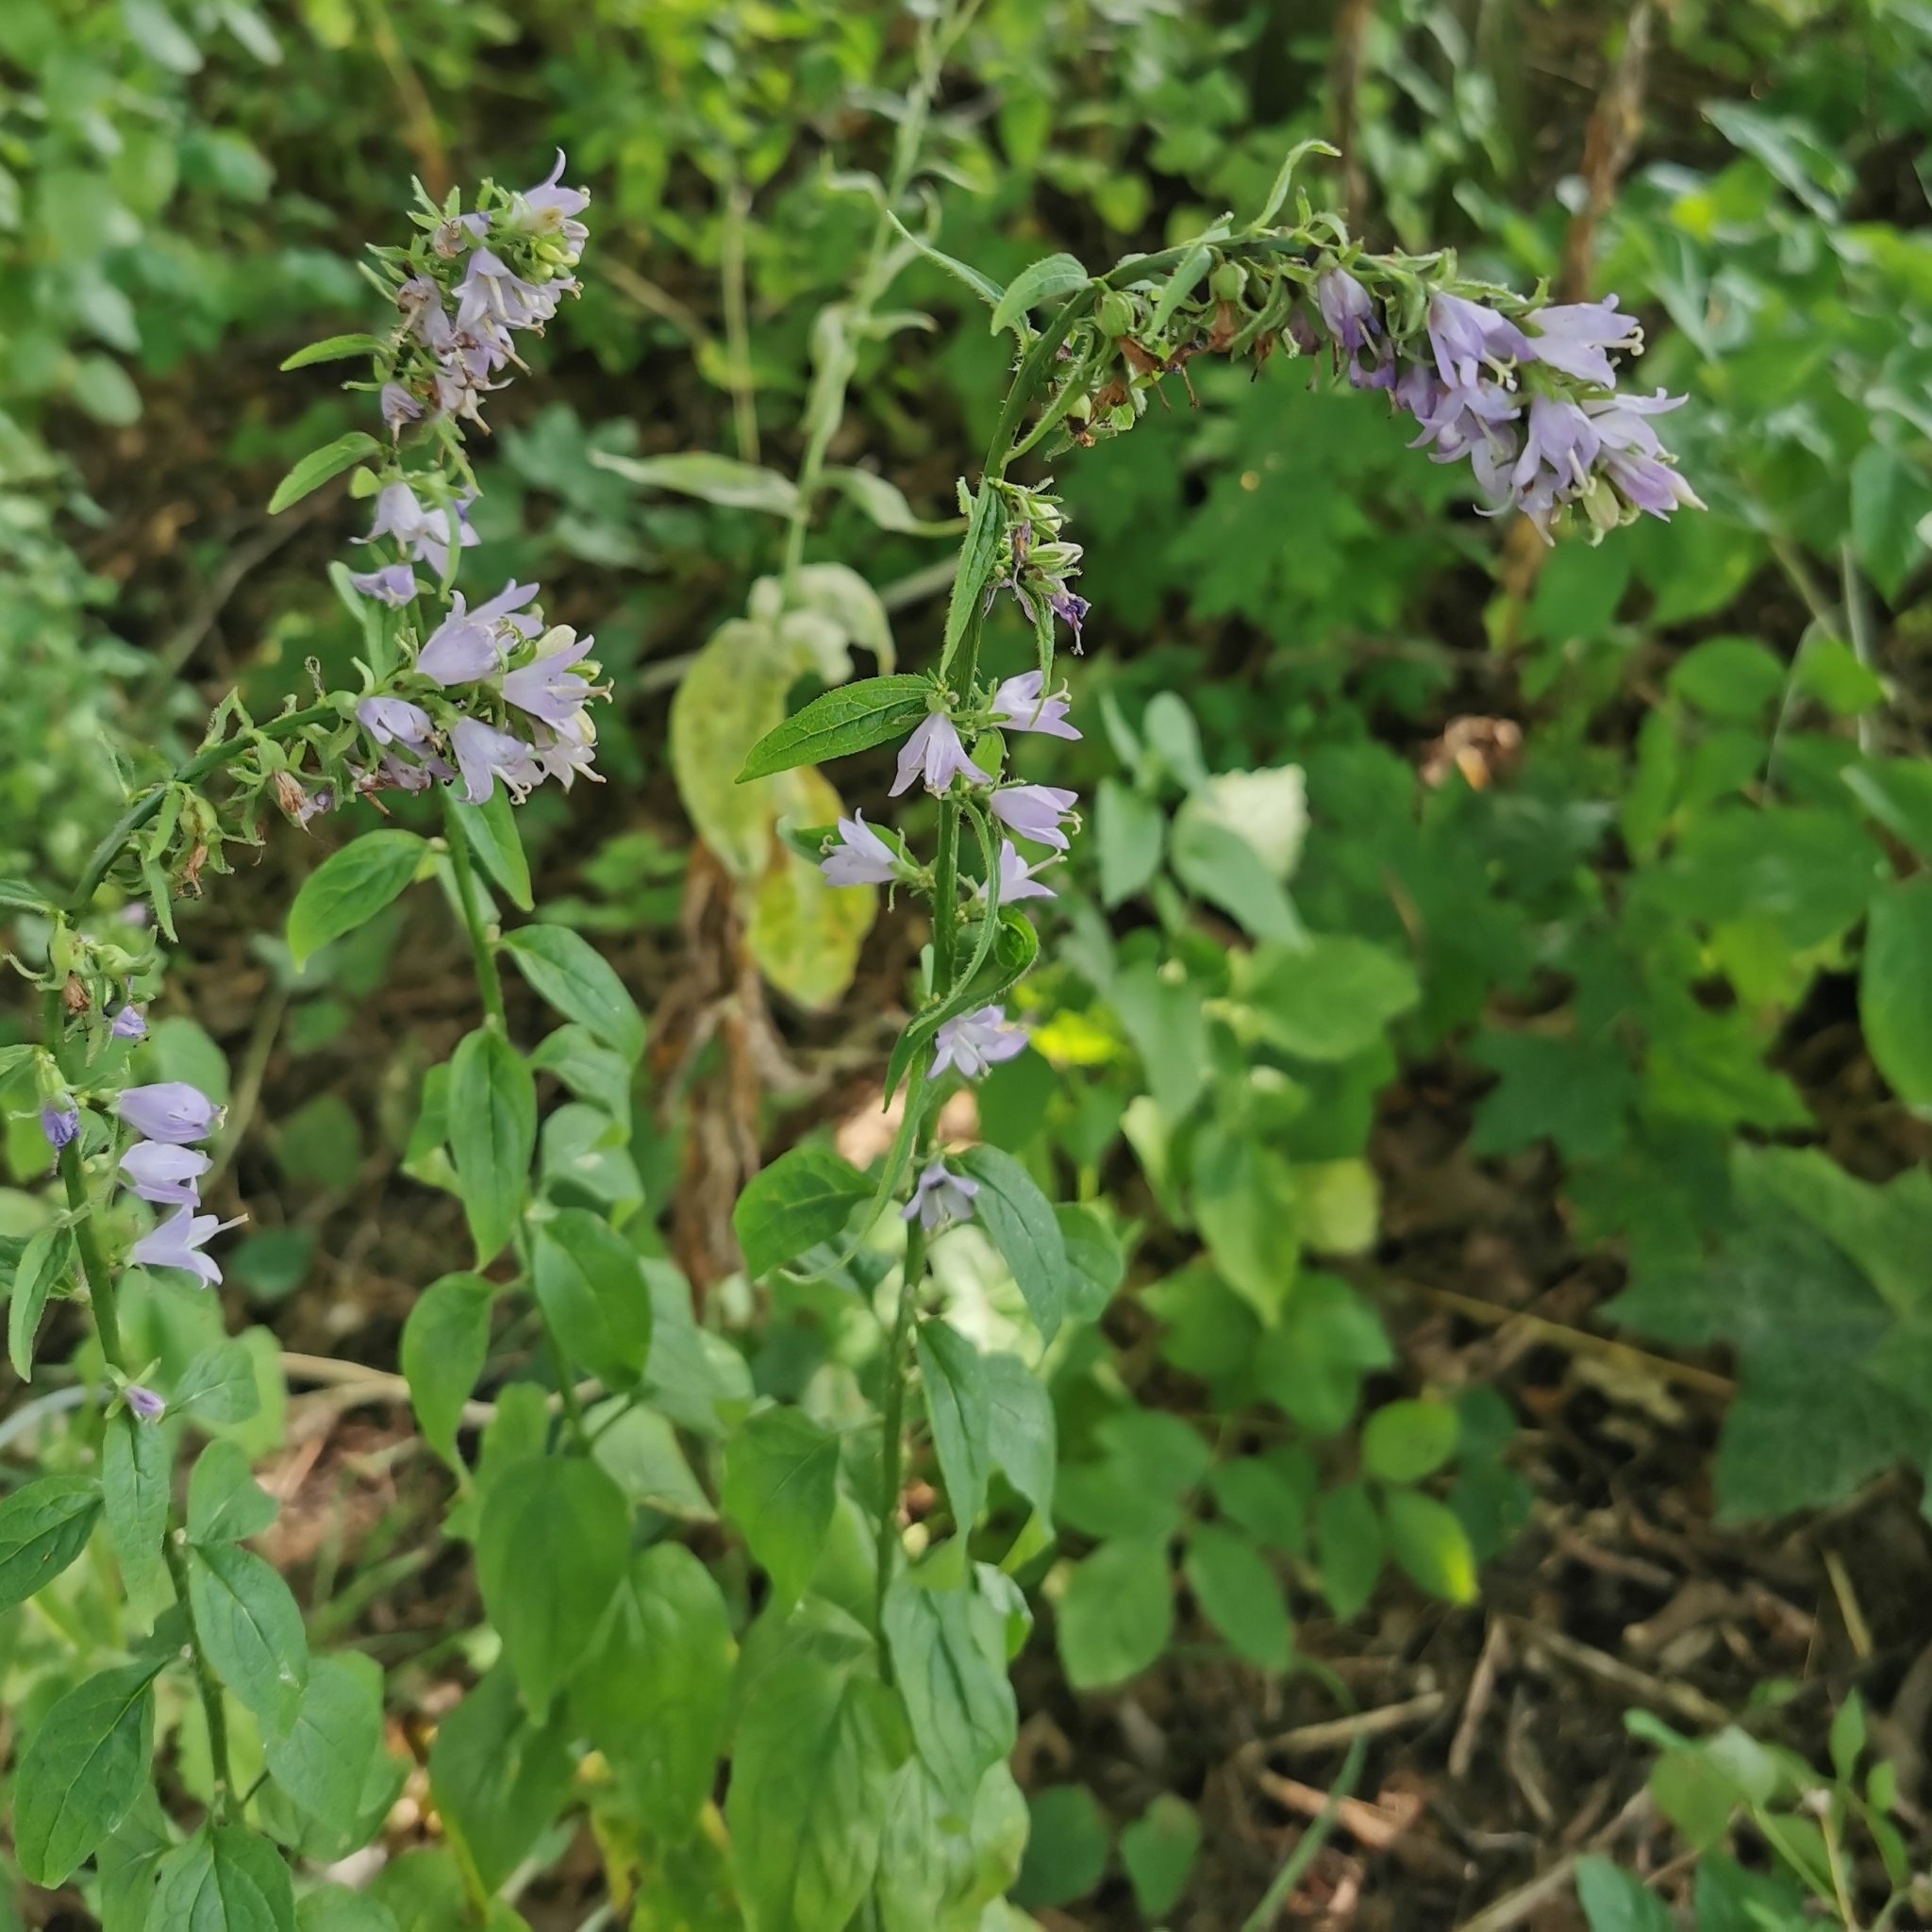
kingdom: Plantae
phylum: Tracheophyta
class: Magnoliopsida
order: Asterales
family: Campanulaceae
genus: Campanula
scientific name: Campanula rapunculoides
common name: Creeping bellflower
